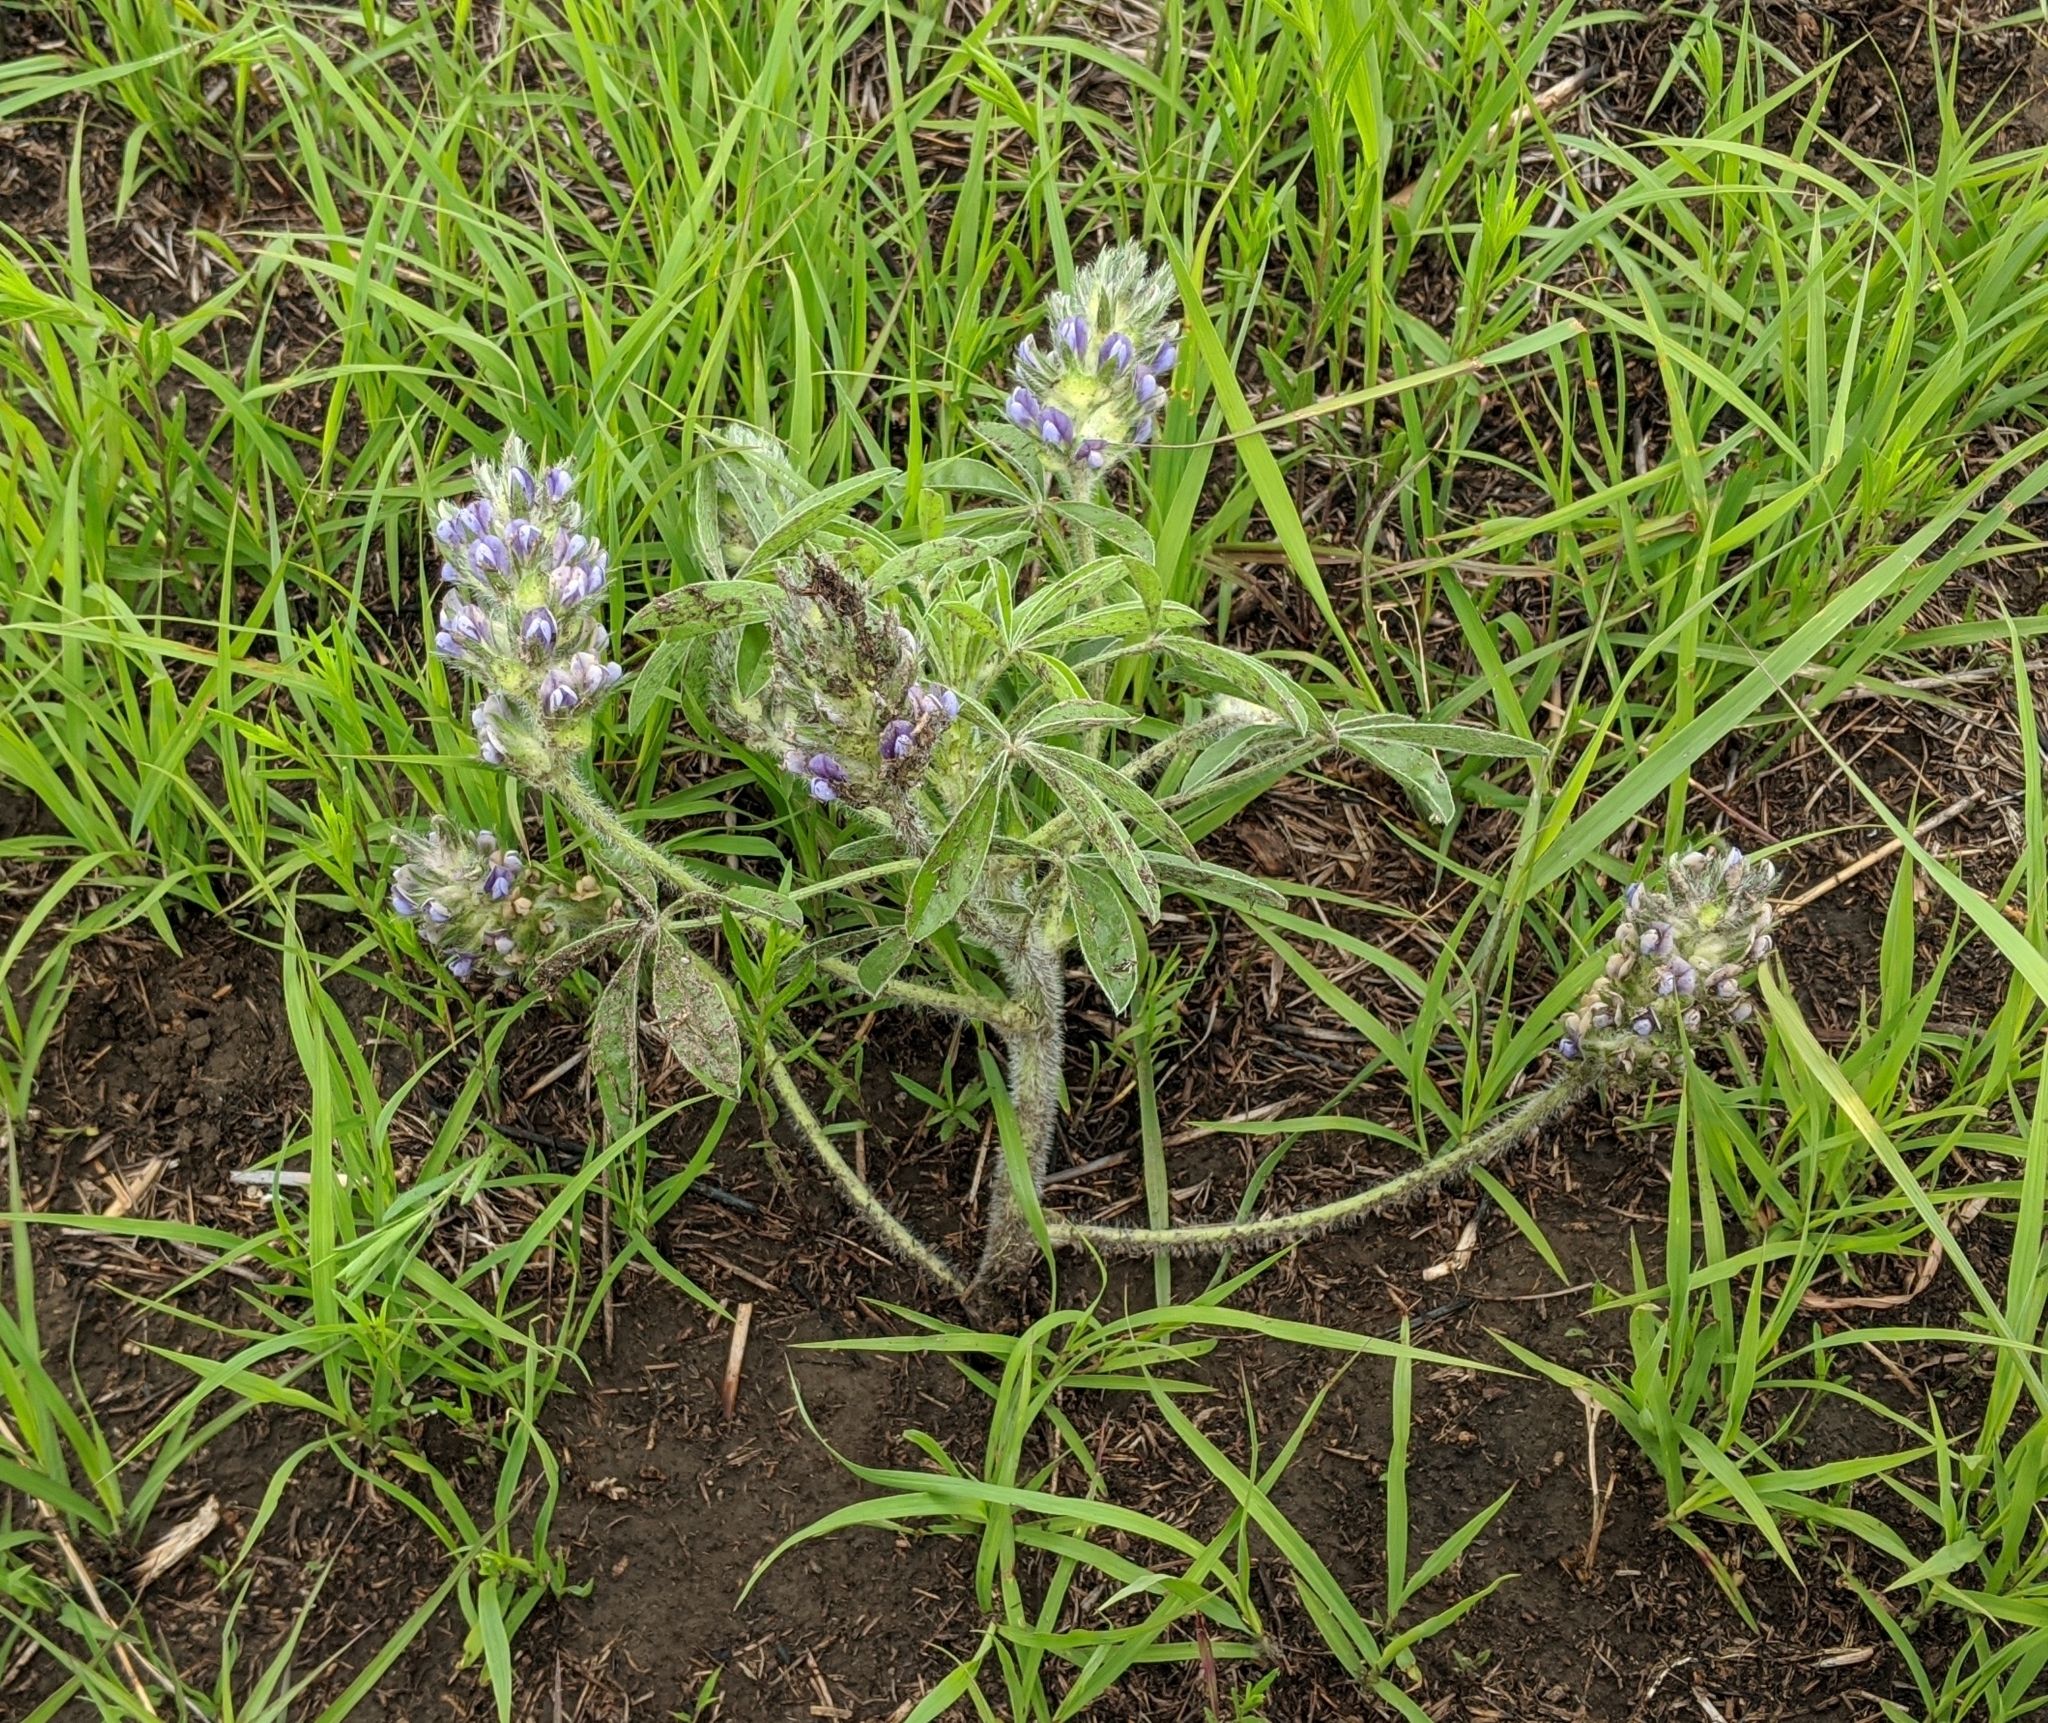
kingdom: Plantae
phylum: Tracheophyta
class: Magnoliopsida
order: Fabales
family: Fabaceae
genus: Pediomelum
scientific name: Pediomelum esculentum
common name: Indian-turnip
